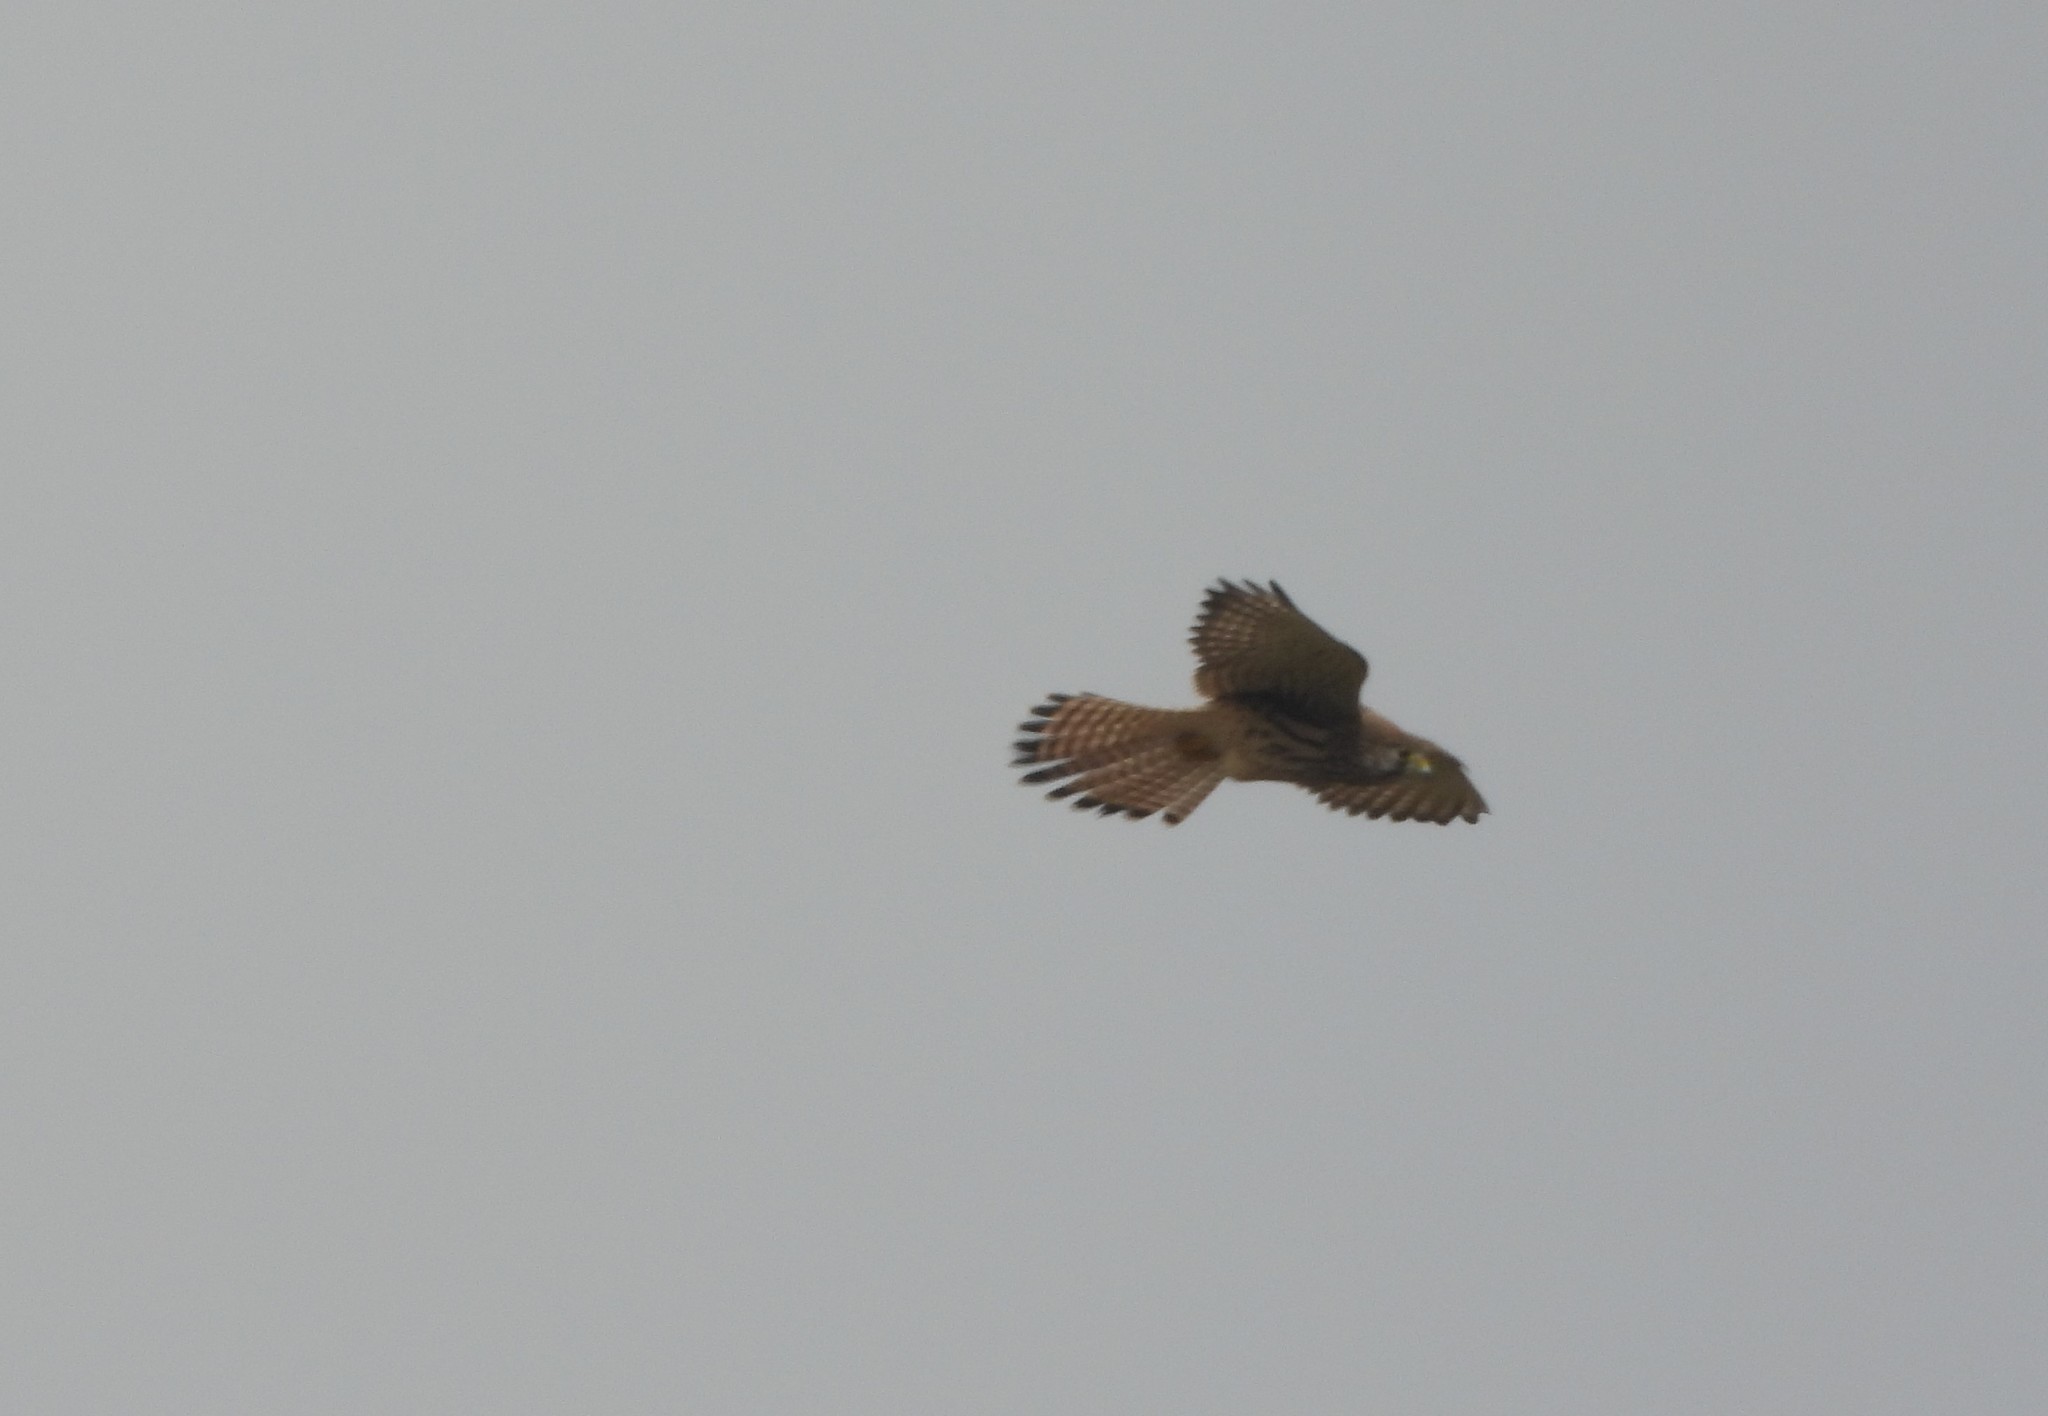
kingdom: Animalia
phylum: Chordata
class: Aves
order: Falconiformes
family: Falconidae
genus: Falco
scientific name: Falco tinnunculus
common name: Common kestrel
